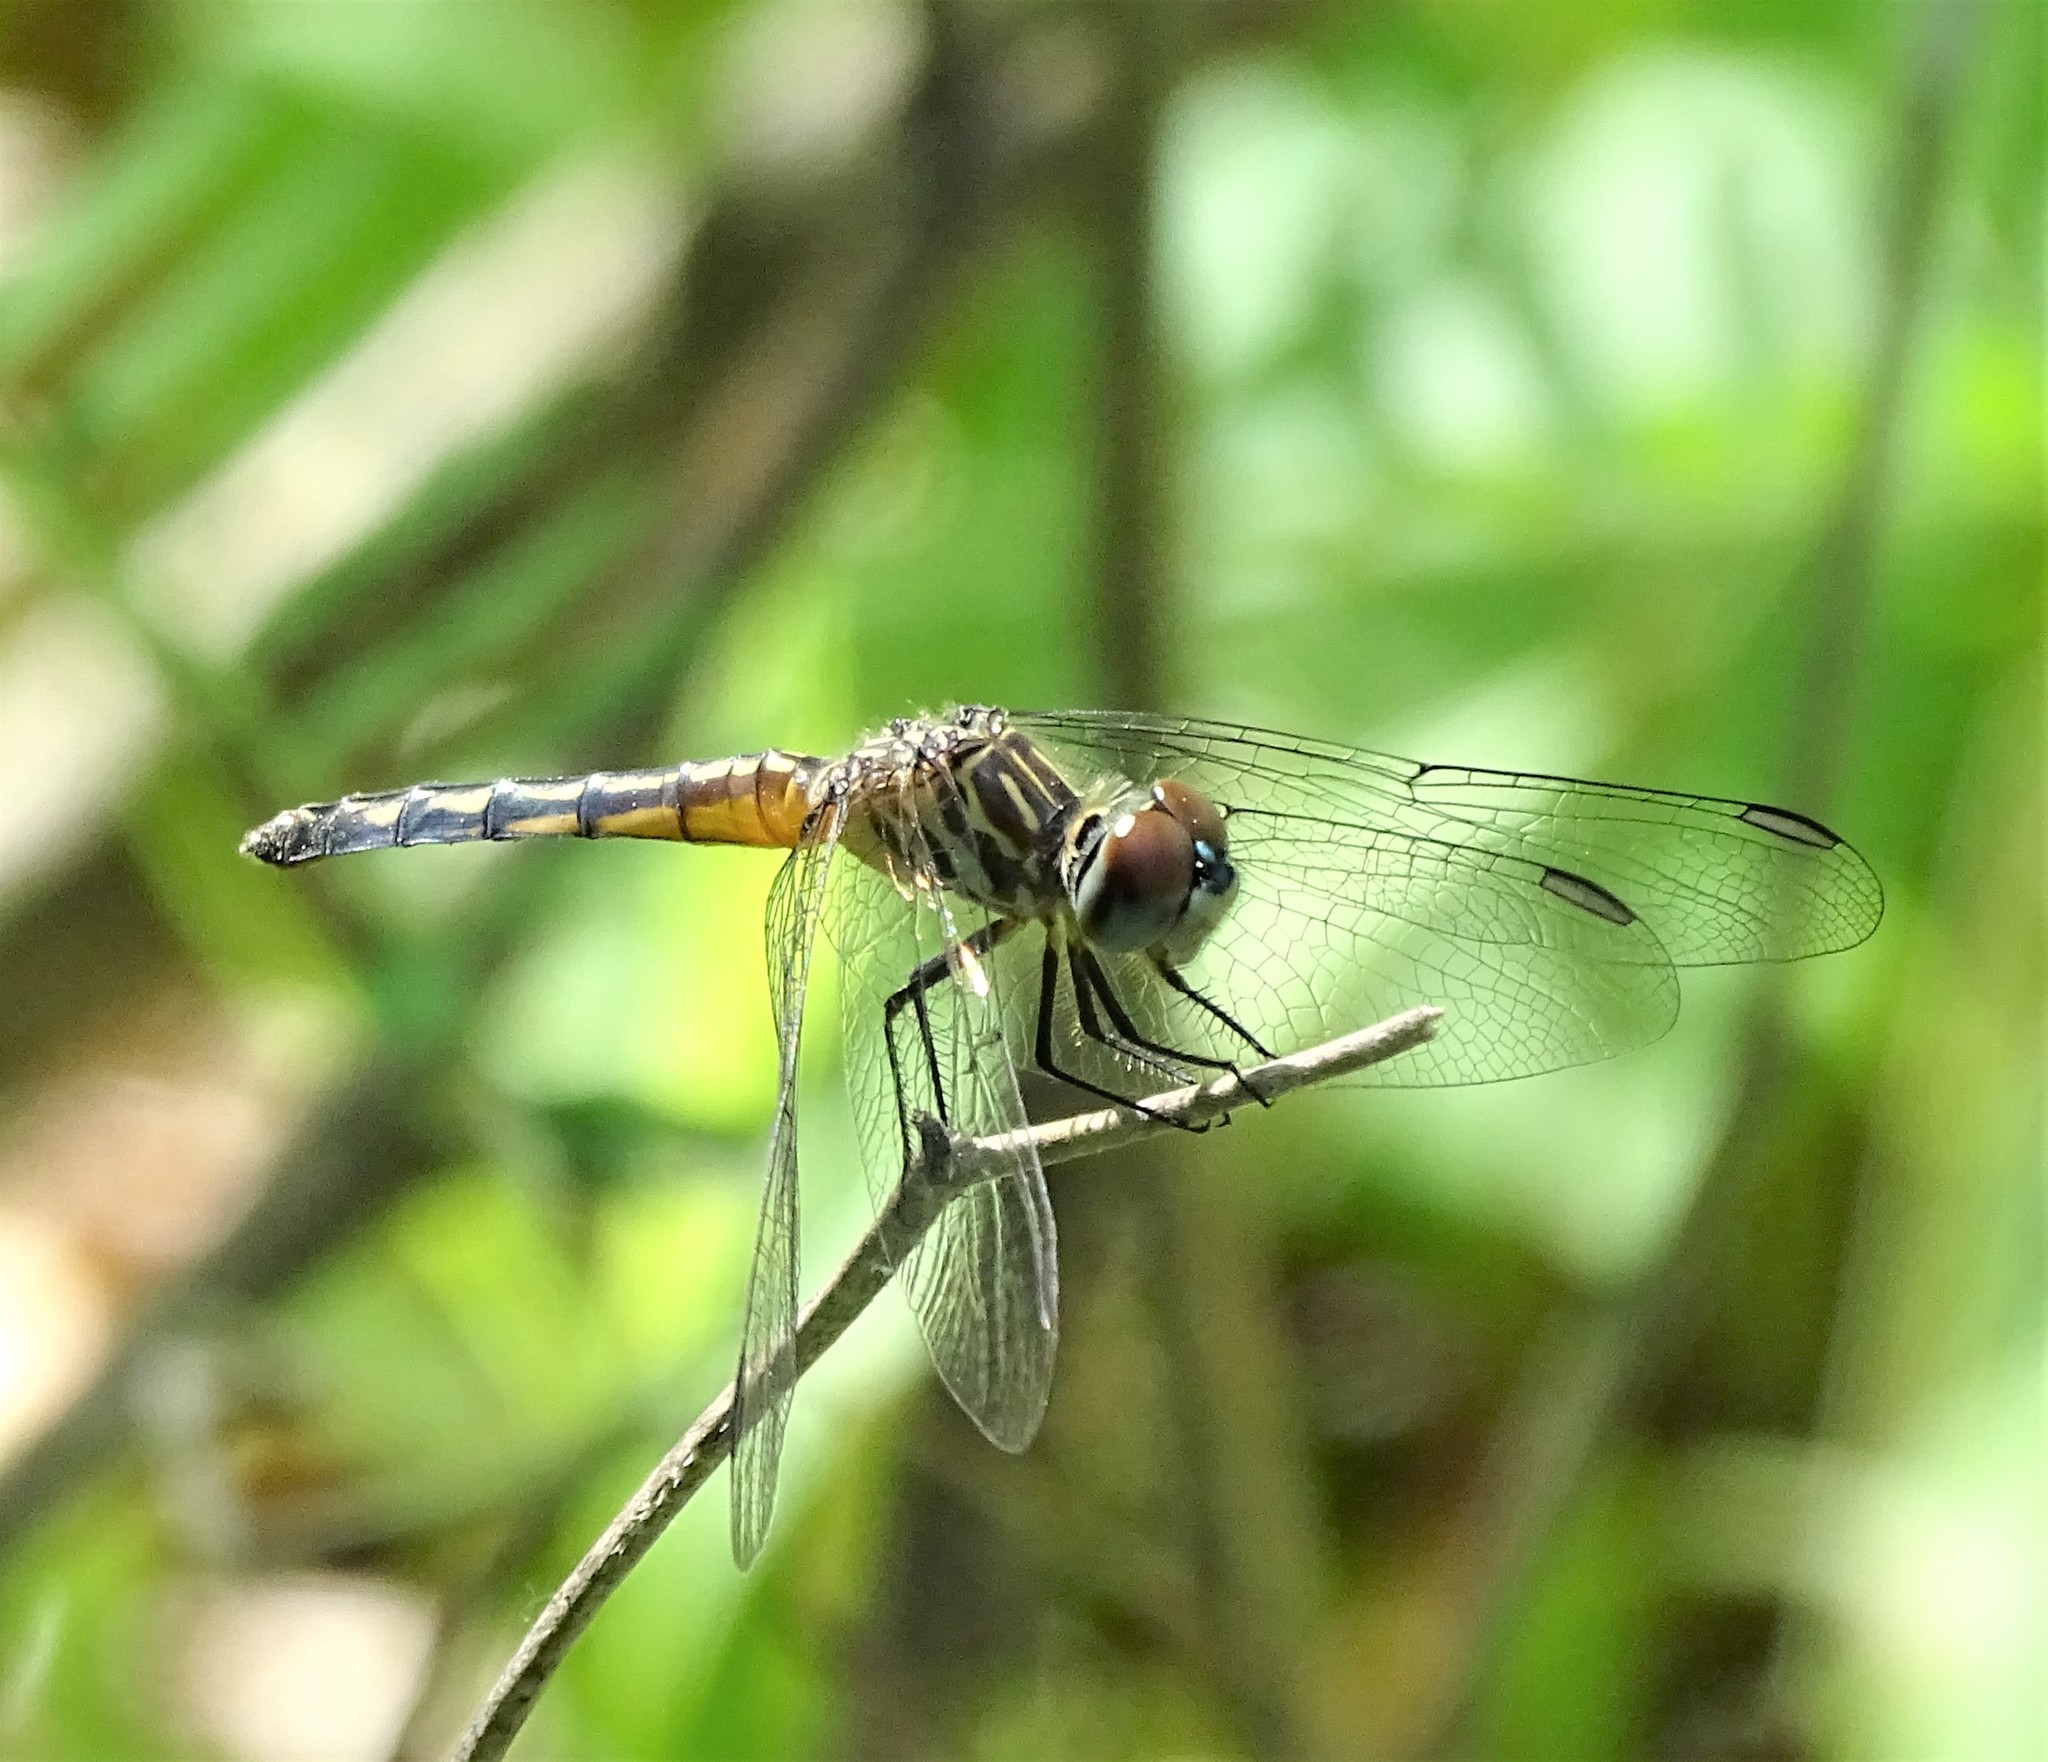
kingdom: Animalia
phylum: Arthropoda
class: Insecta
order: Odonata
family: Libellulidae
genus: Pachydiplax
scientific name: Pachydiplax longipennis
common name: Blue dasher
